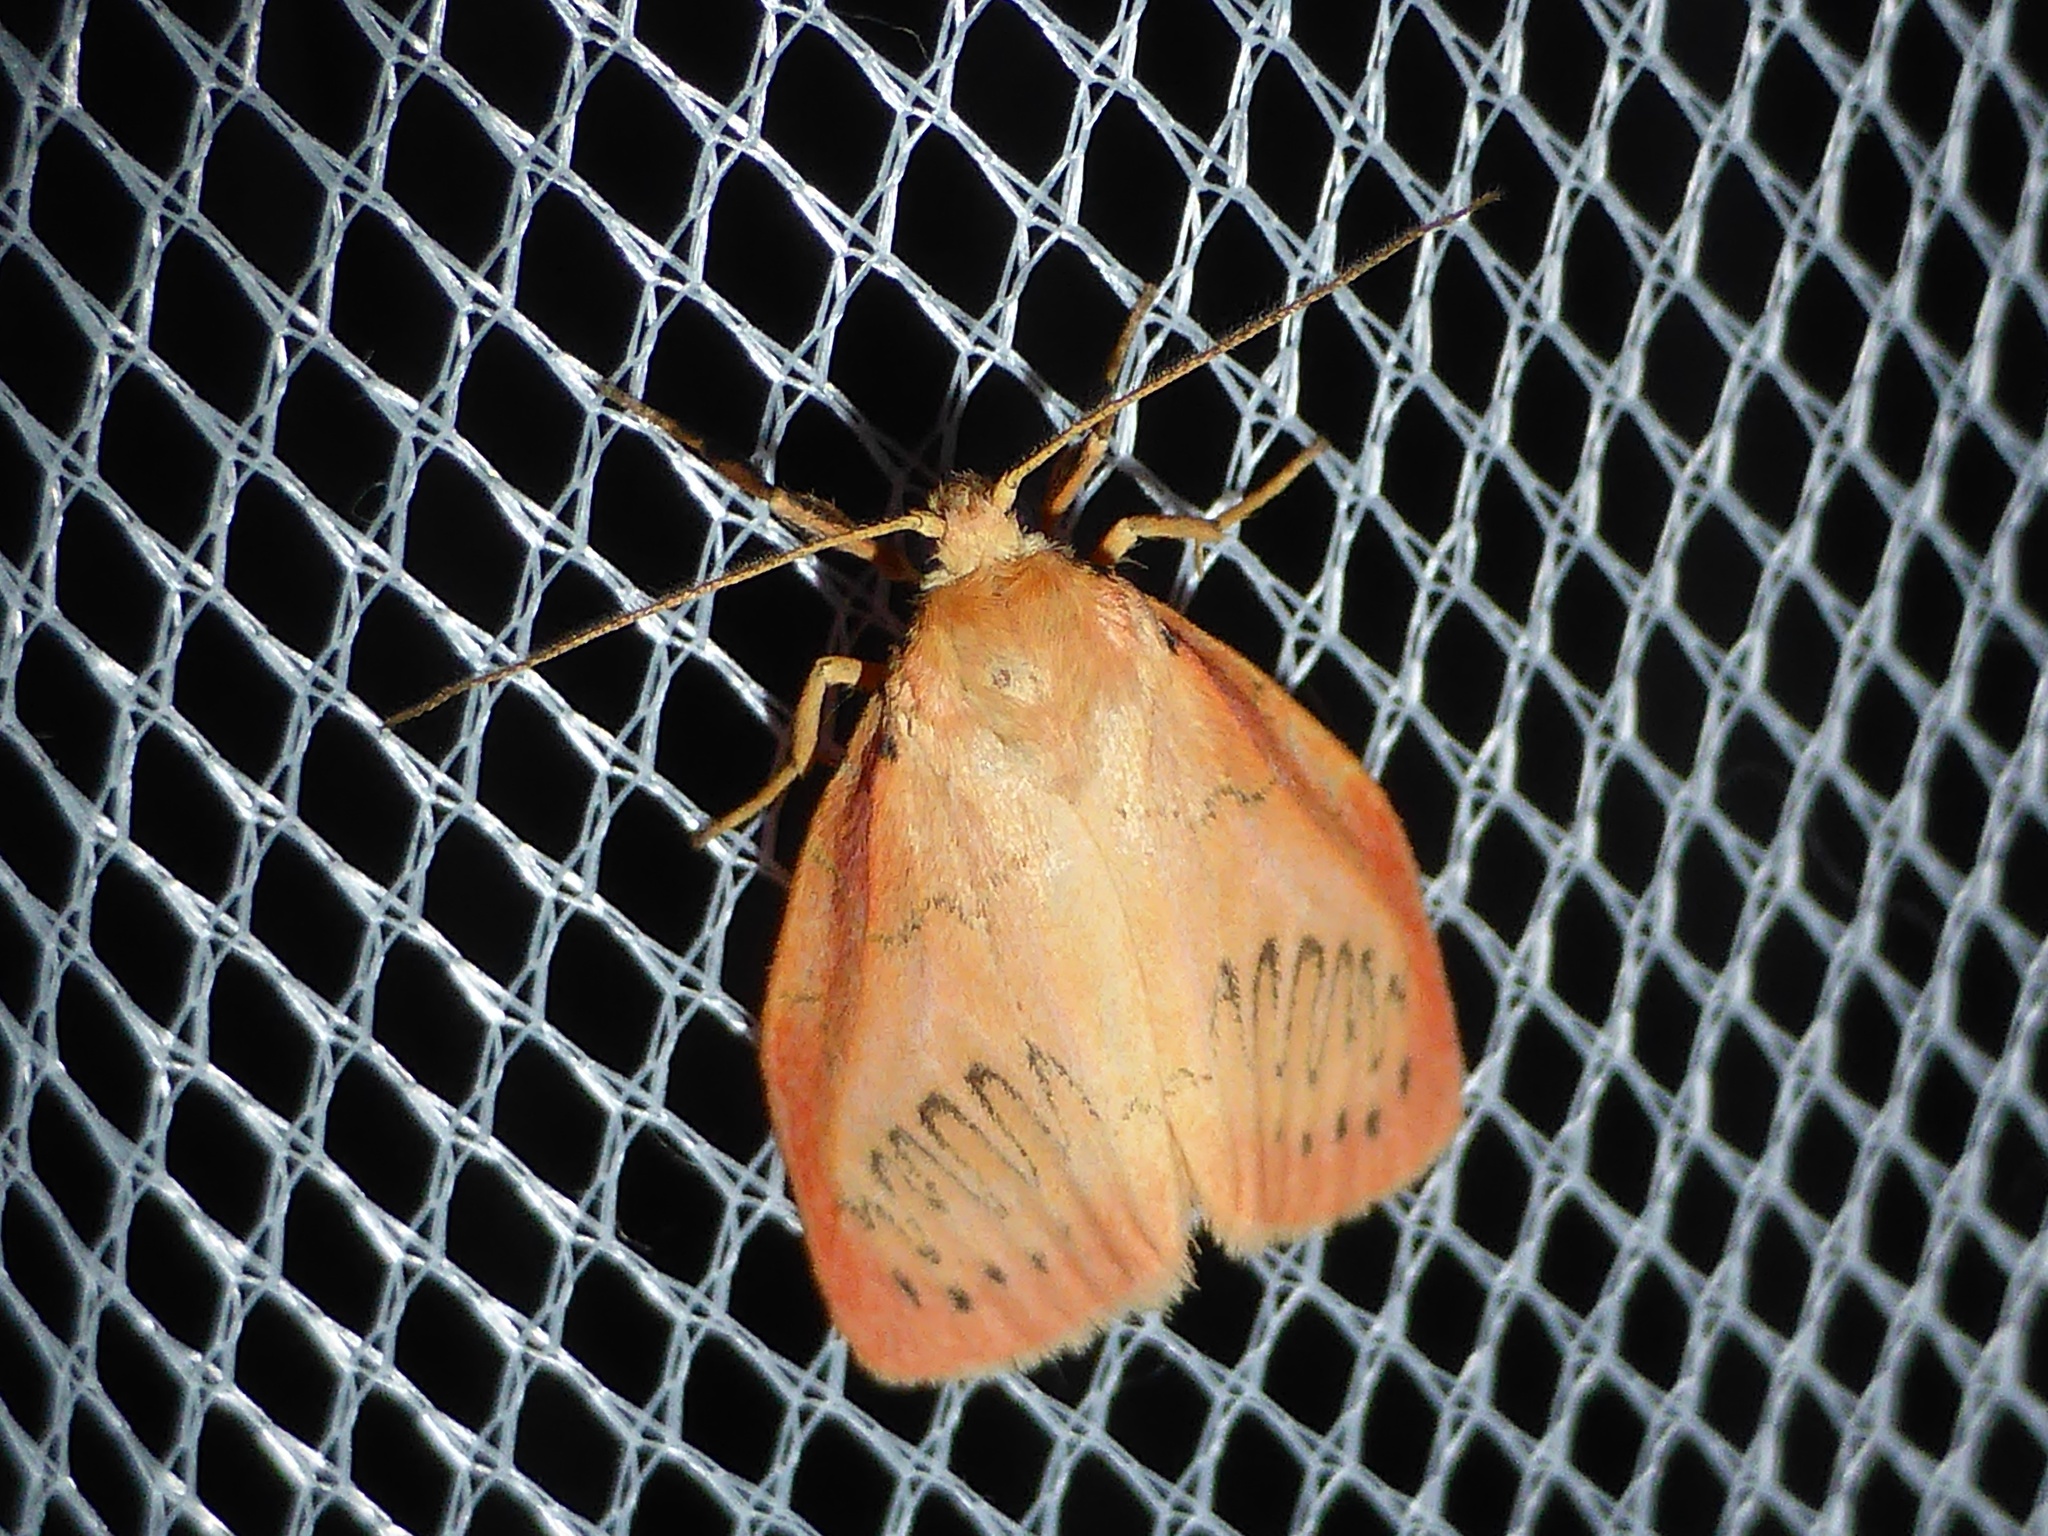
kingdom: Animalia
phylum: Arthropoda
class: Insecta
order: Lepidoptera
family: Erebidae
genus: Miltochrista
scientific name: Miltochrista miniata
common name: Rosy footman
